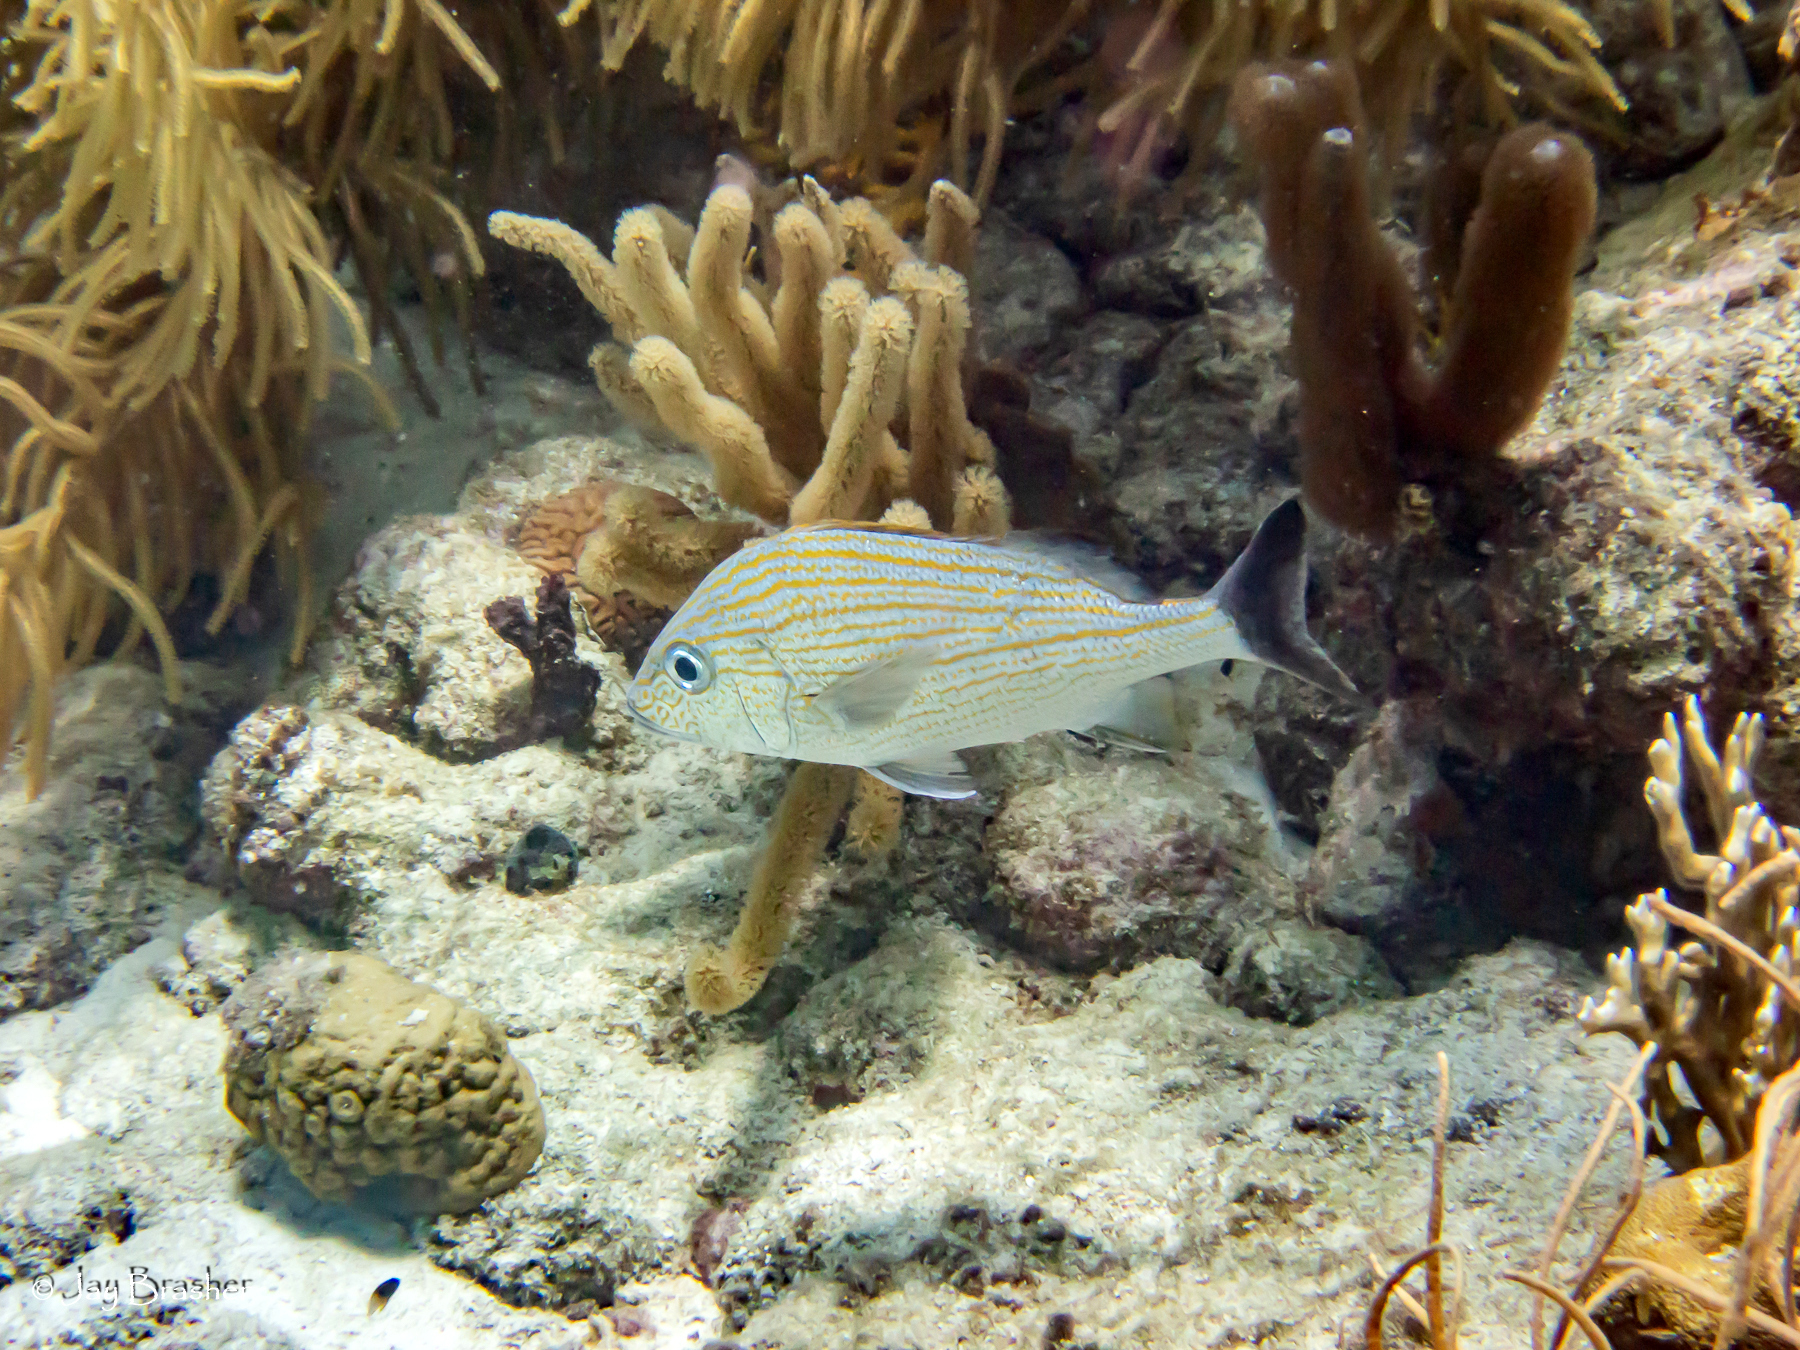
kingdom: Animalia
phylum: Chordata
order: Perciformes
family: Haemulidae
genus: Haemulon
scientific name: Haemulon carbonarium
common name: Caesar grunt
